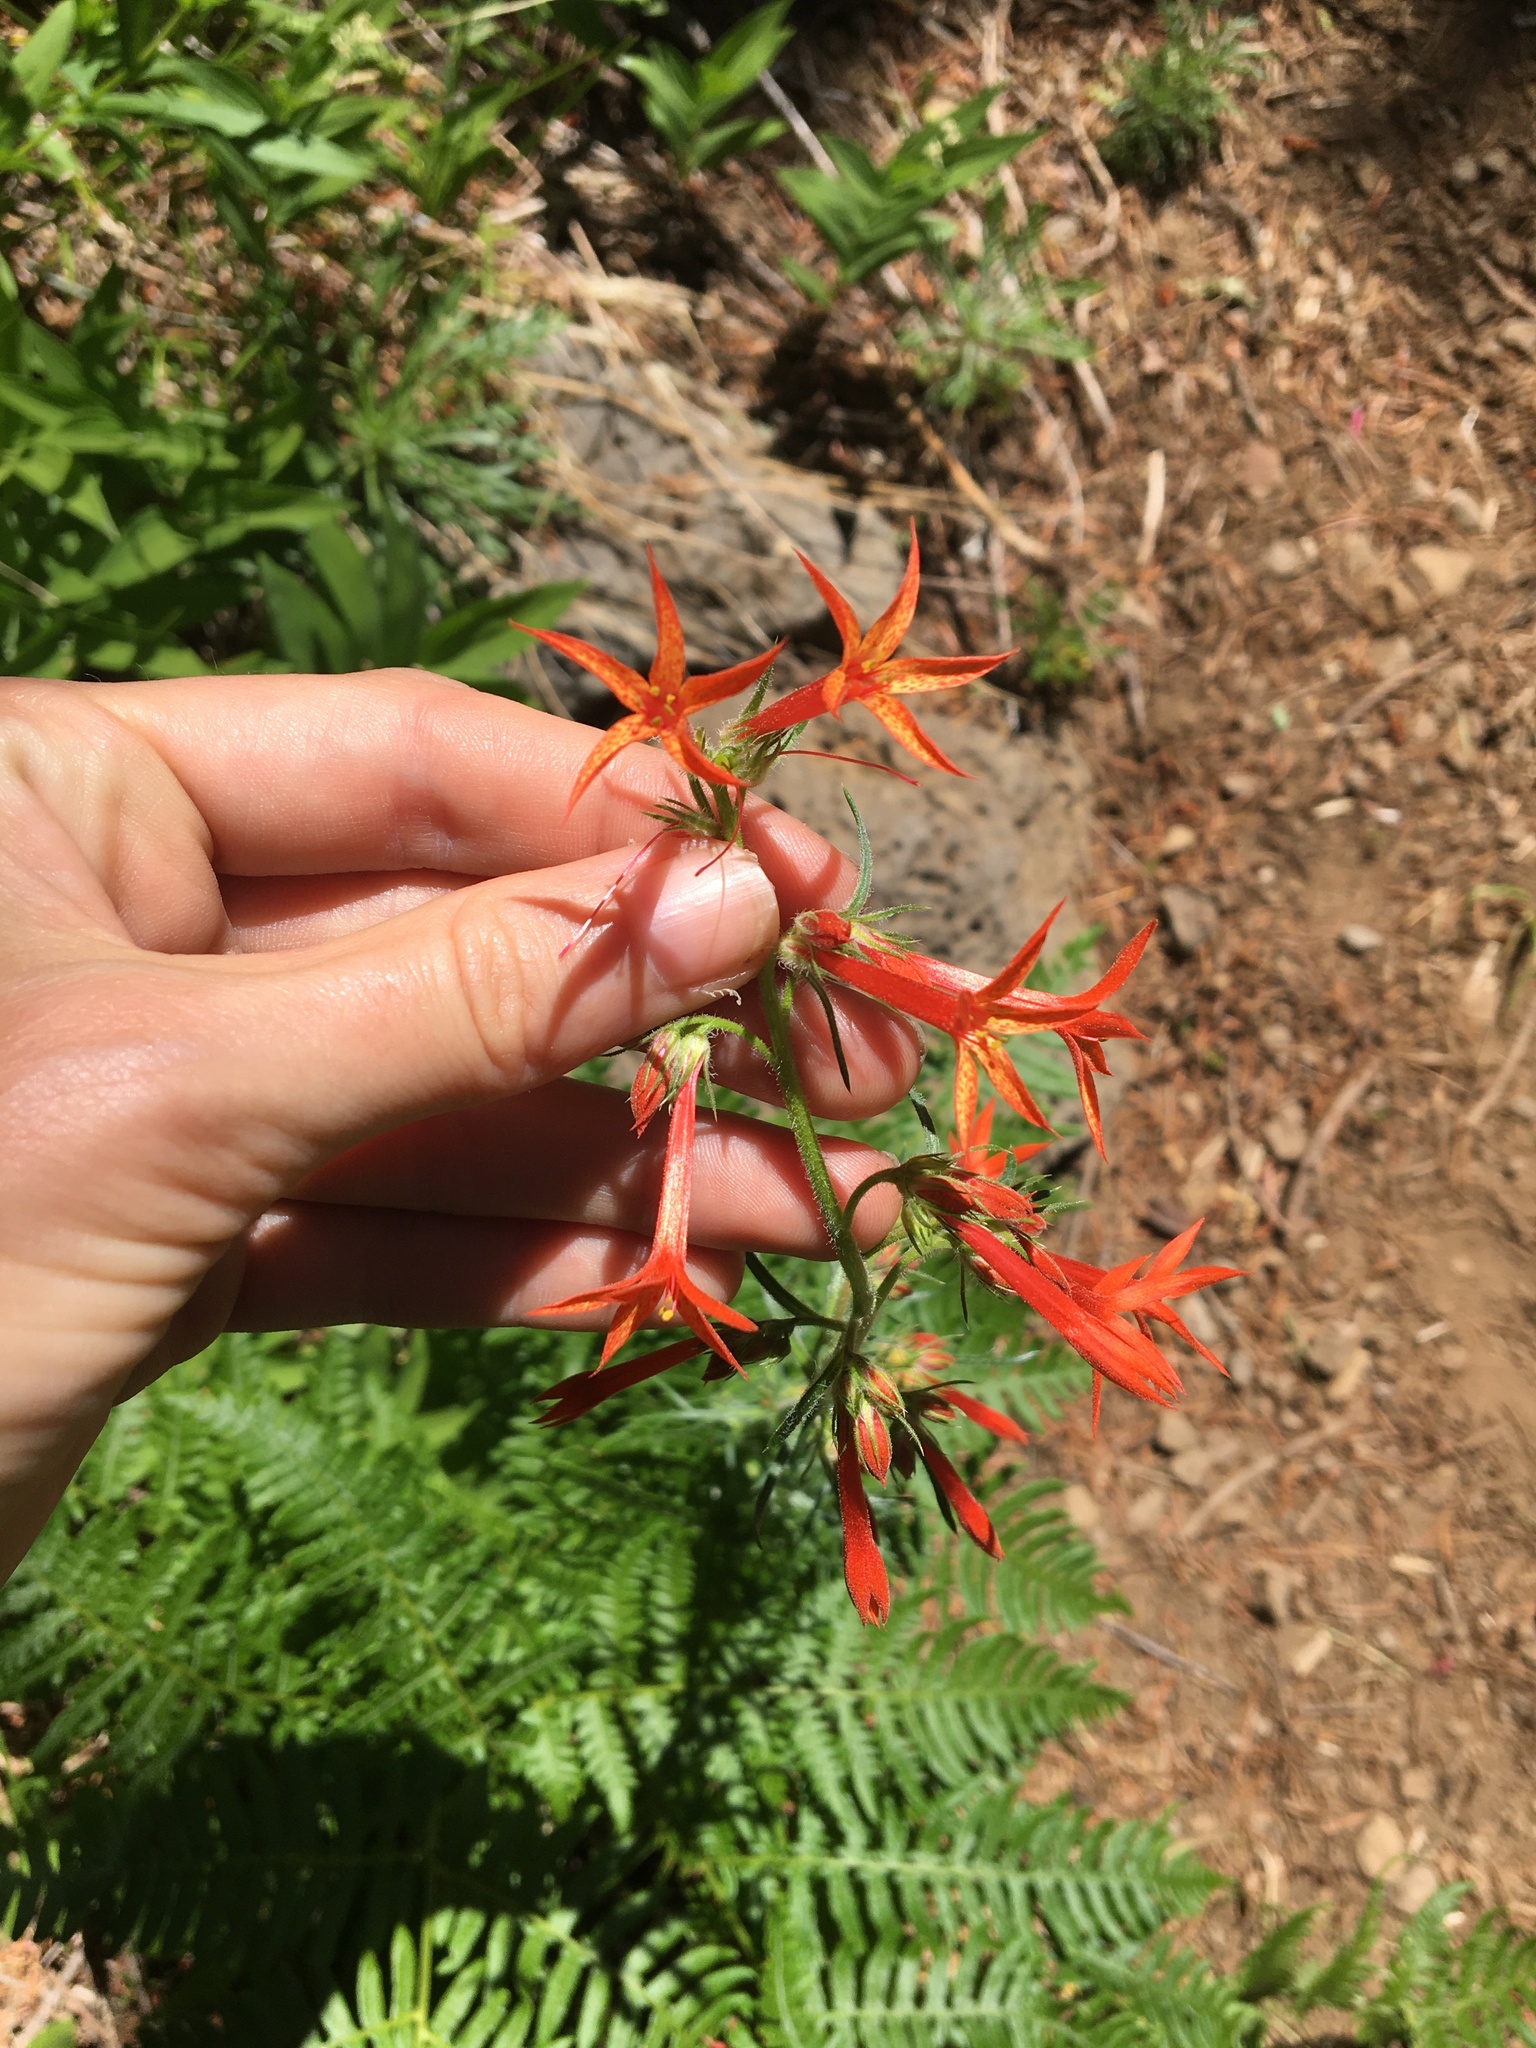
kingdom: Plantae
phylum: Tracheophyta
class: Magnoliopsida
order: Ericales
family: Polemoniaceae
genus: Ipomopsis
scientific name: Ipomopsis aggregata
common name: Scarlet gilia
